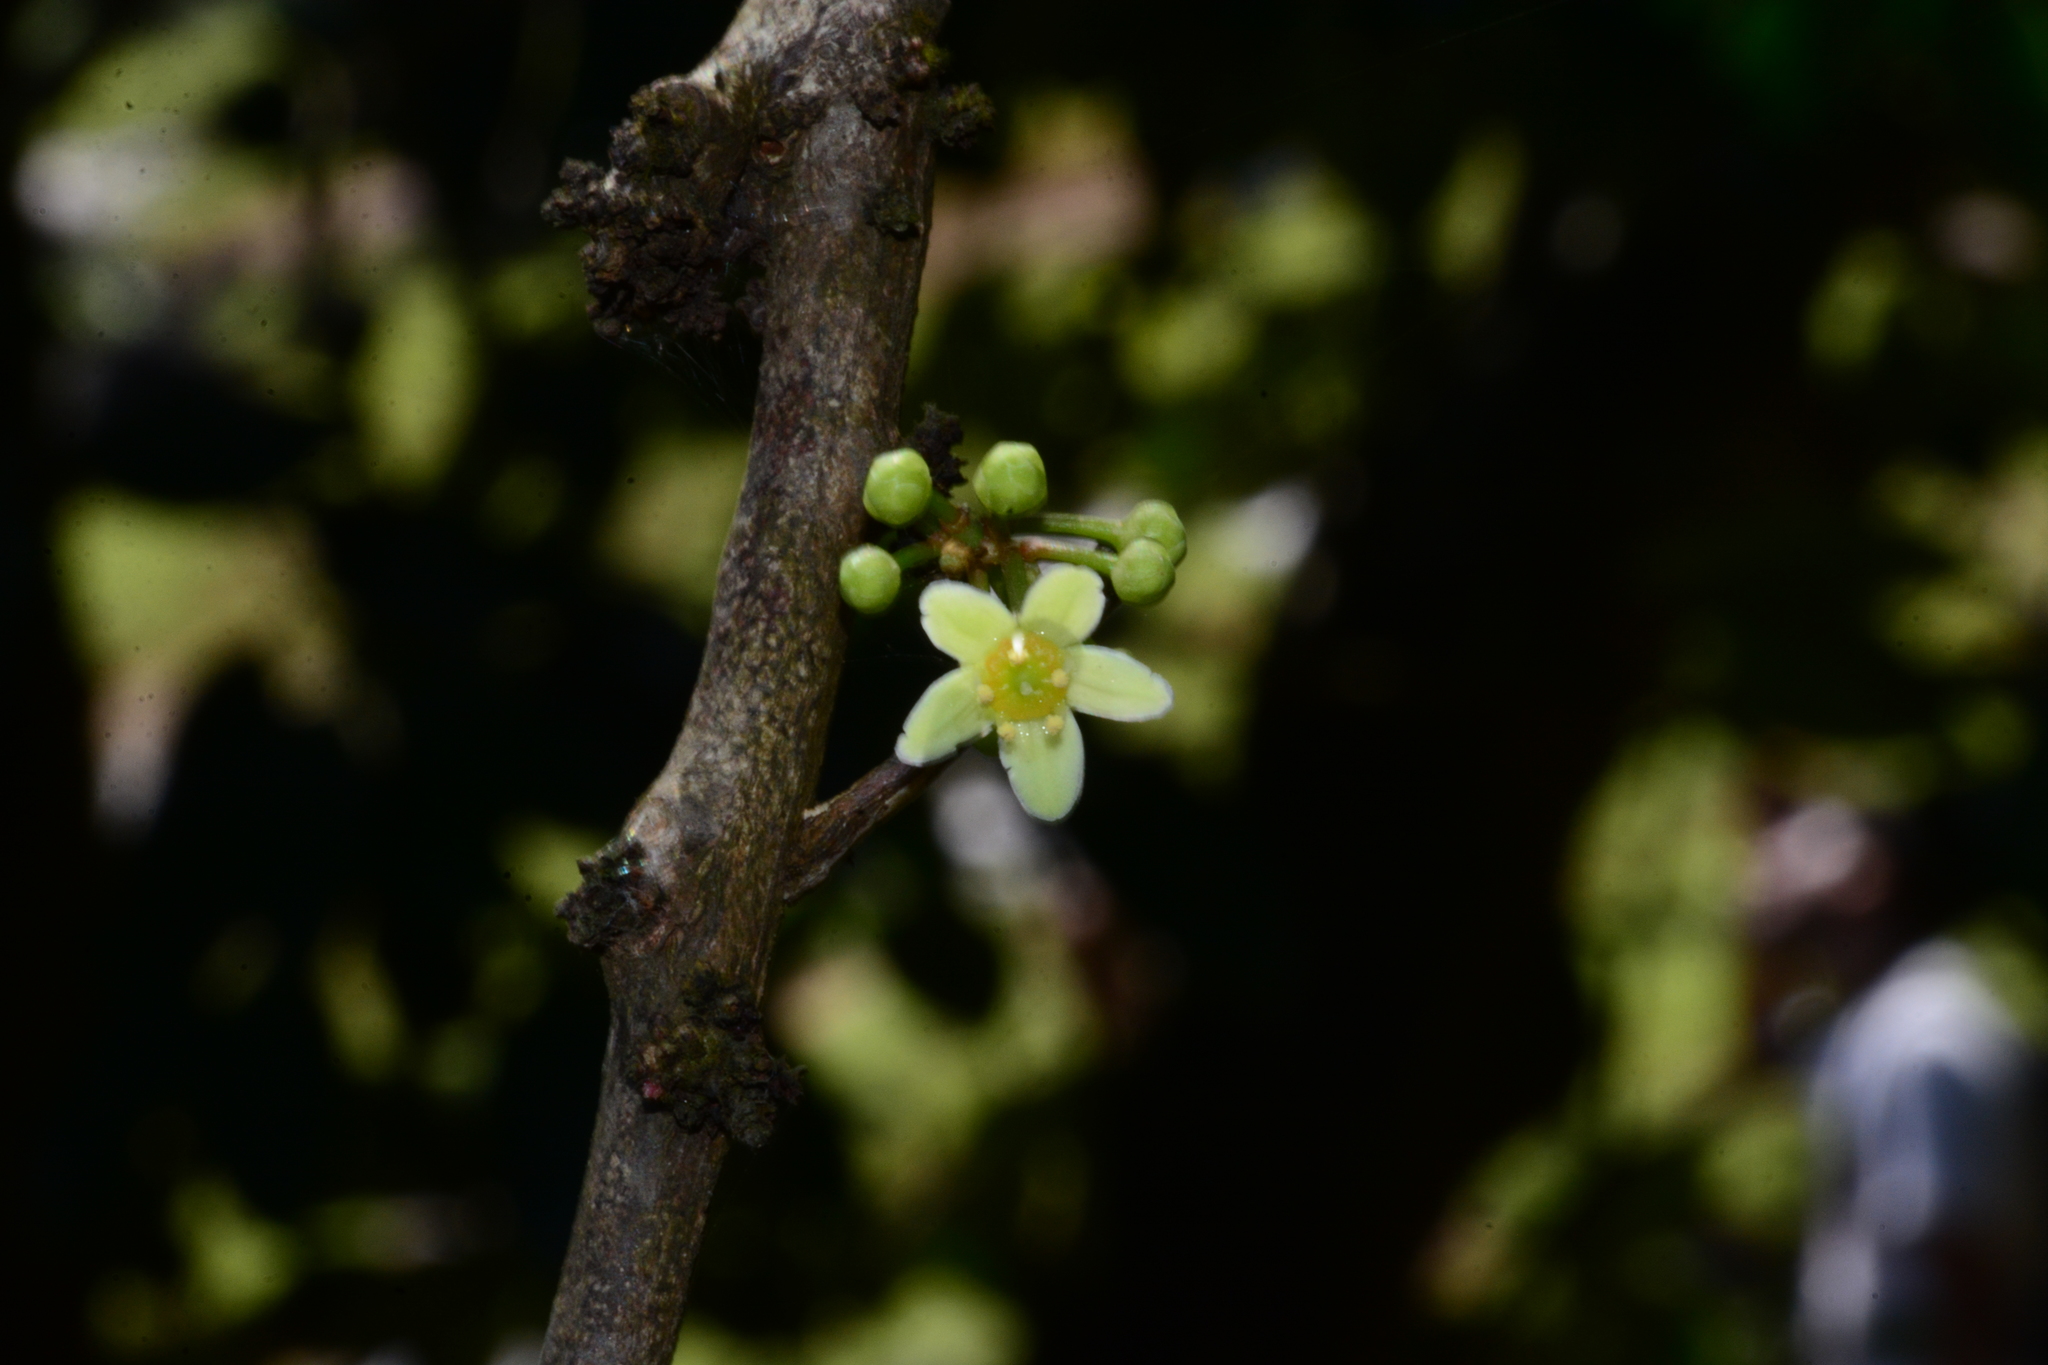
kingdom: Plantae
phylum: Tracheophyta
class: Magnoliopsida
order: Celastrales
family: Celastraceae
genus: Gymnosporia
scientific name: Gymnosporia rothiana
